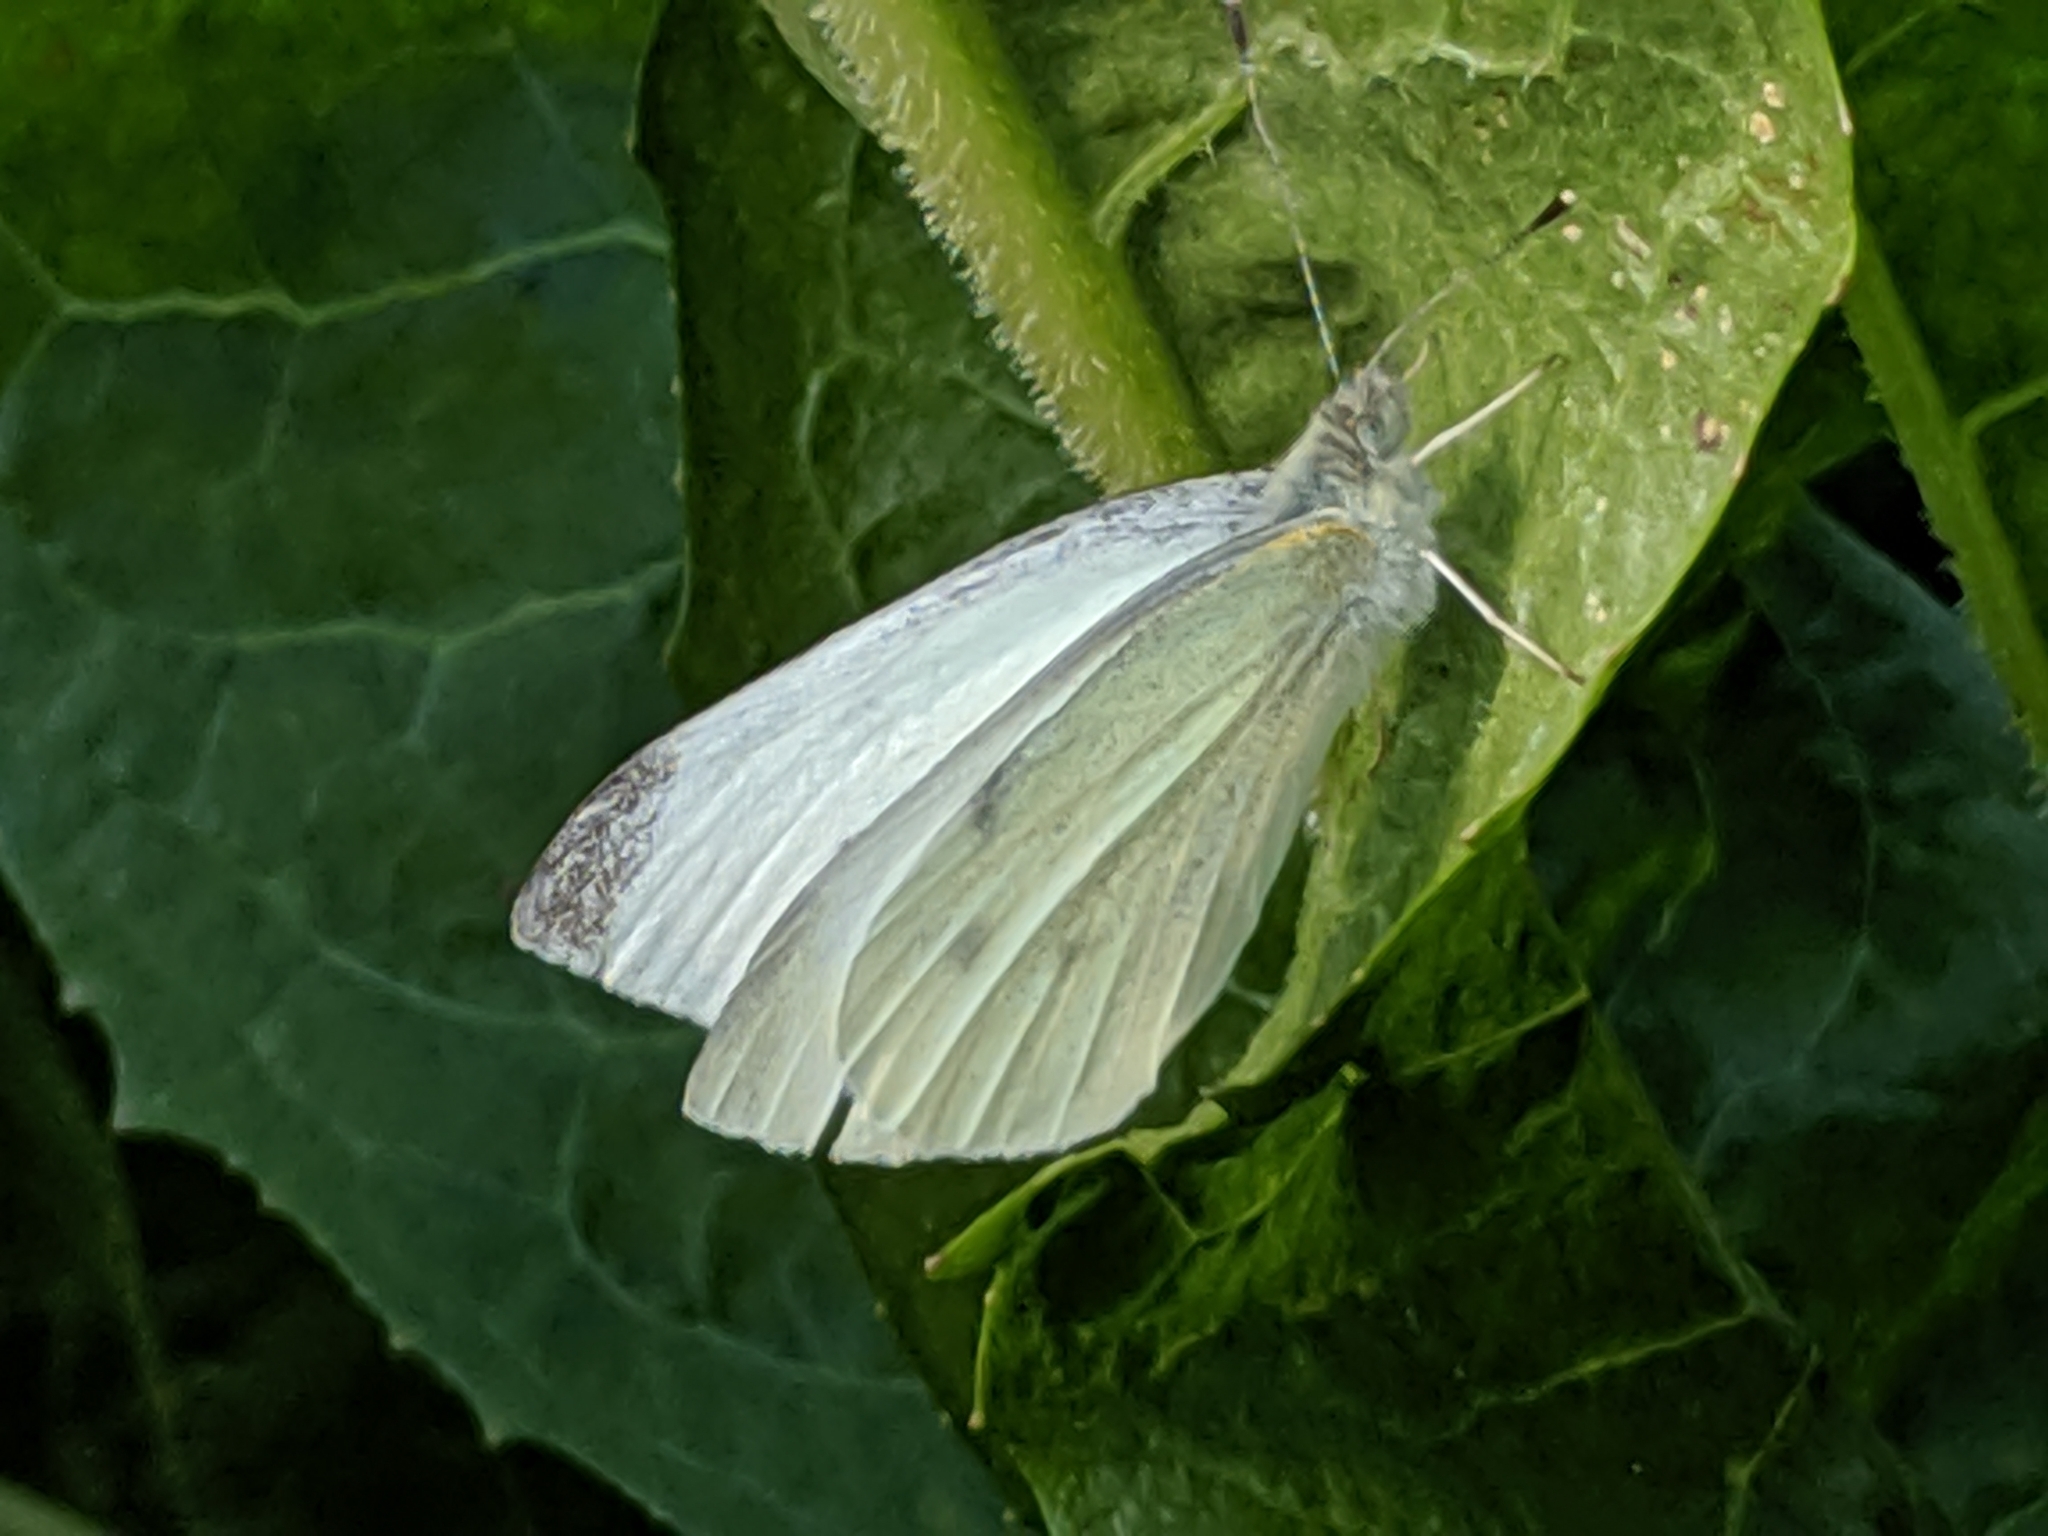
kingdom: Animalia
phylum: Arthropoda
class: Insecta
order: Lepidoptera
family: Pieridae
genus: Pieris
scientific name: Pieris rapae
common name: Small white
